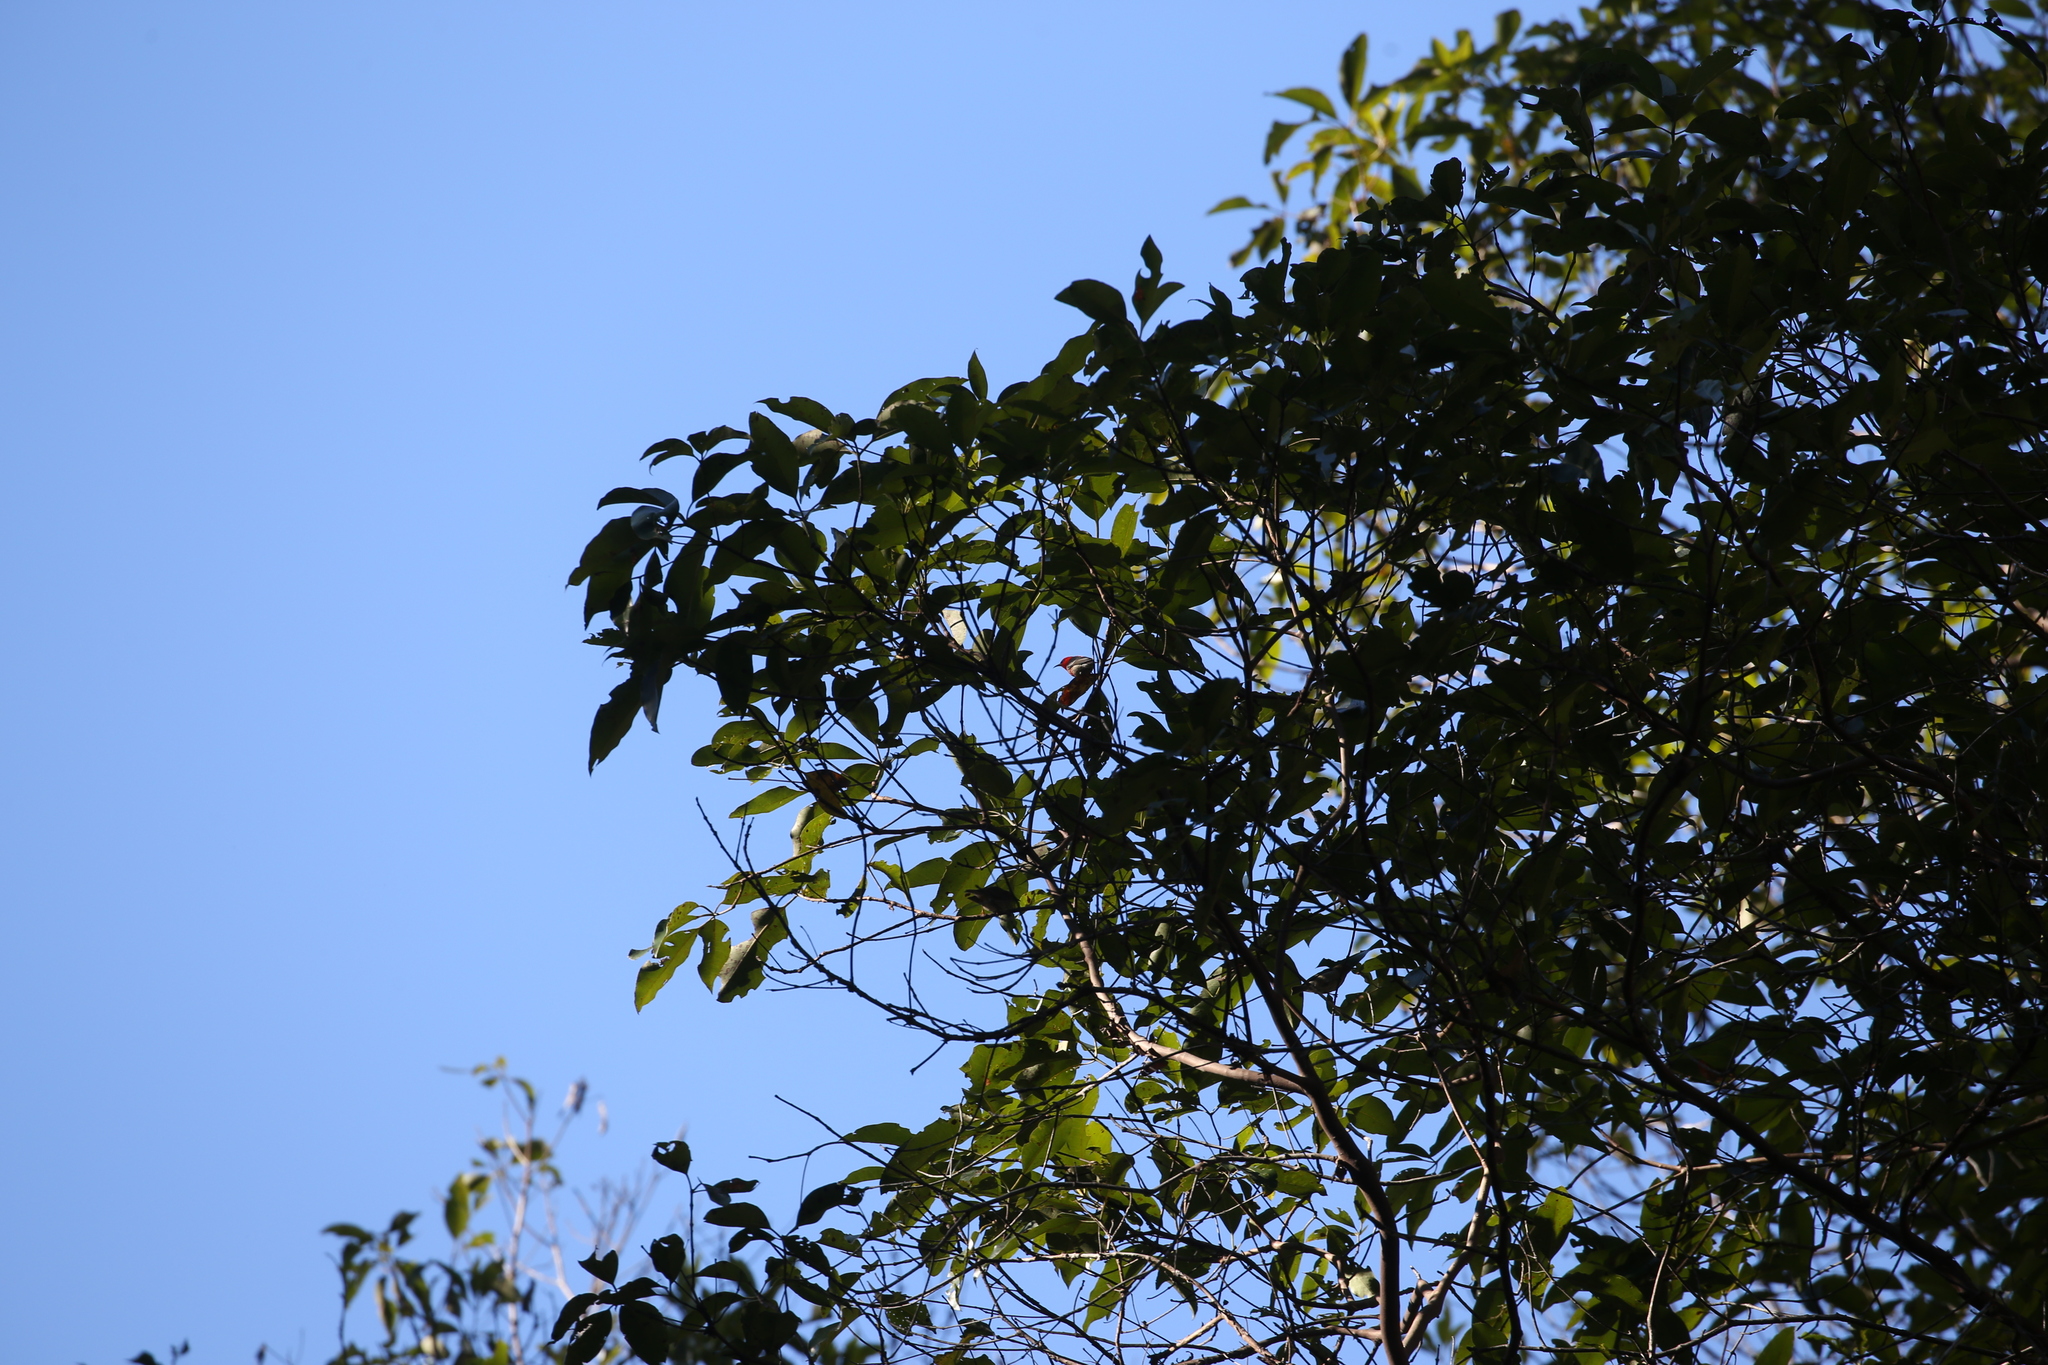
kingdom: Animalia
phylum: Chordata
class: Aves
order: Passeriformes
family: Meliphagidae
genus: Myzomela
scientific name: Myzomela sanguinolenta
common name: Scarlet myzomela
